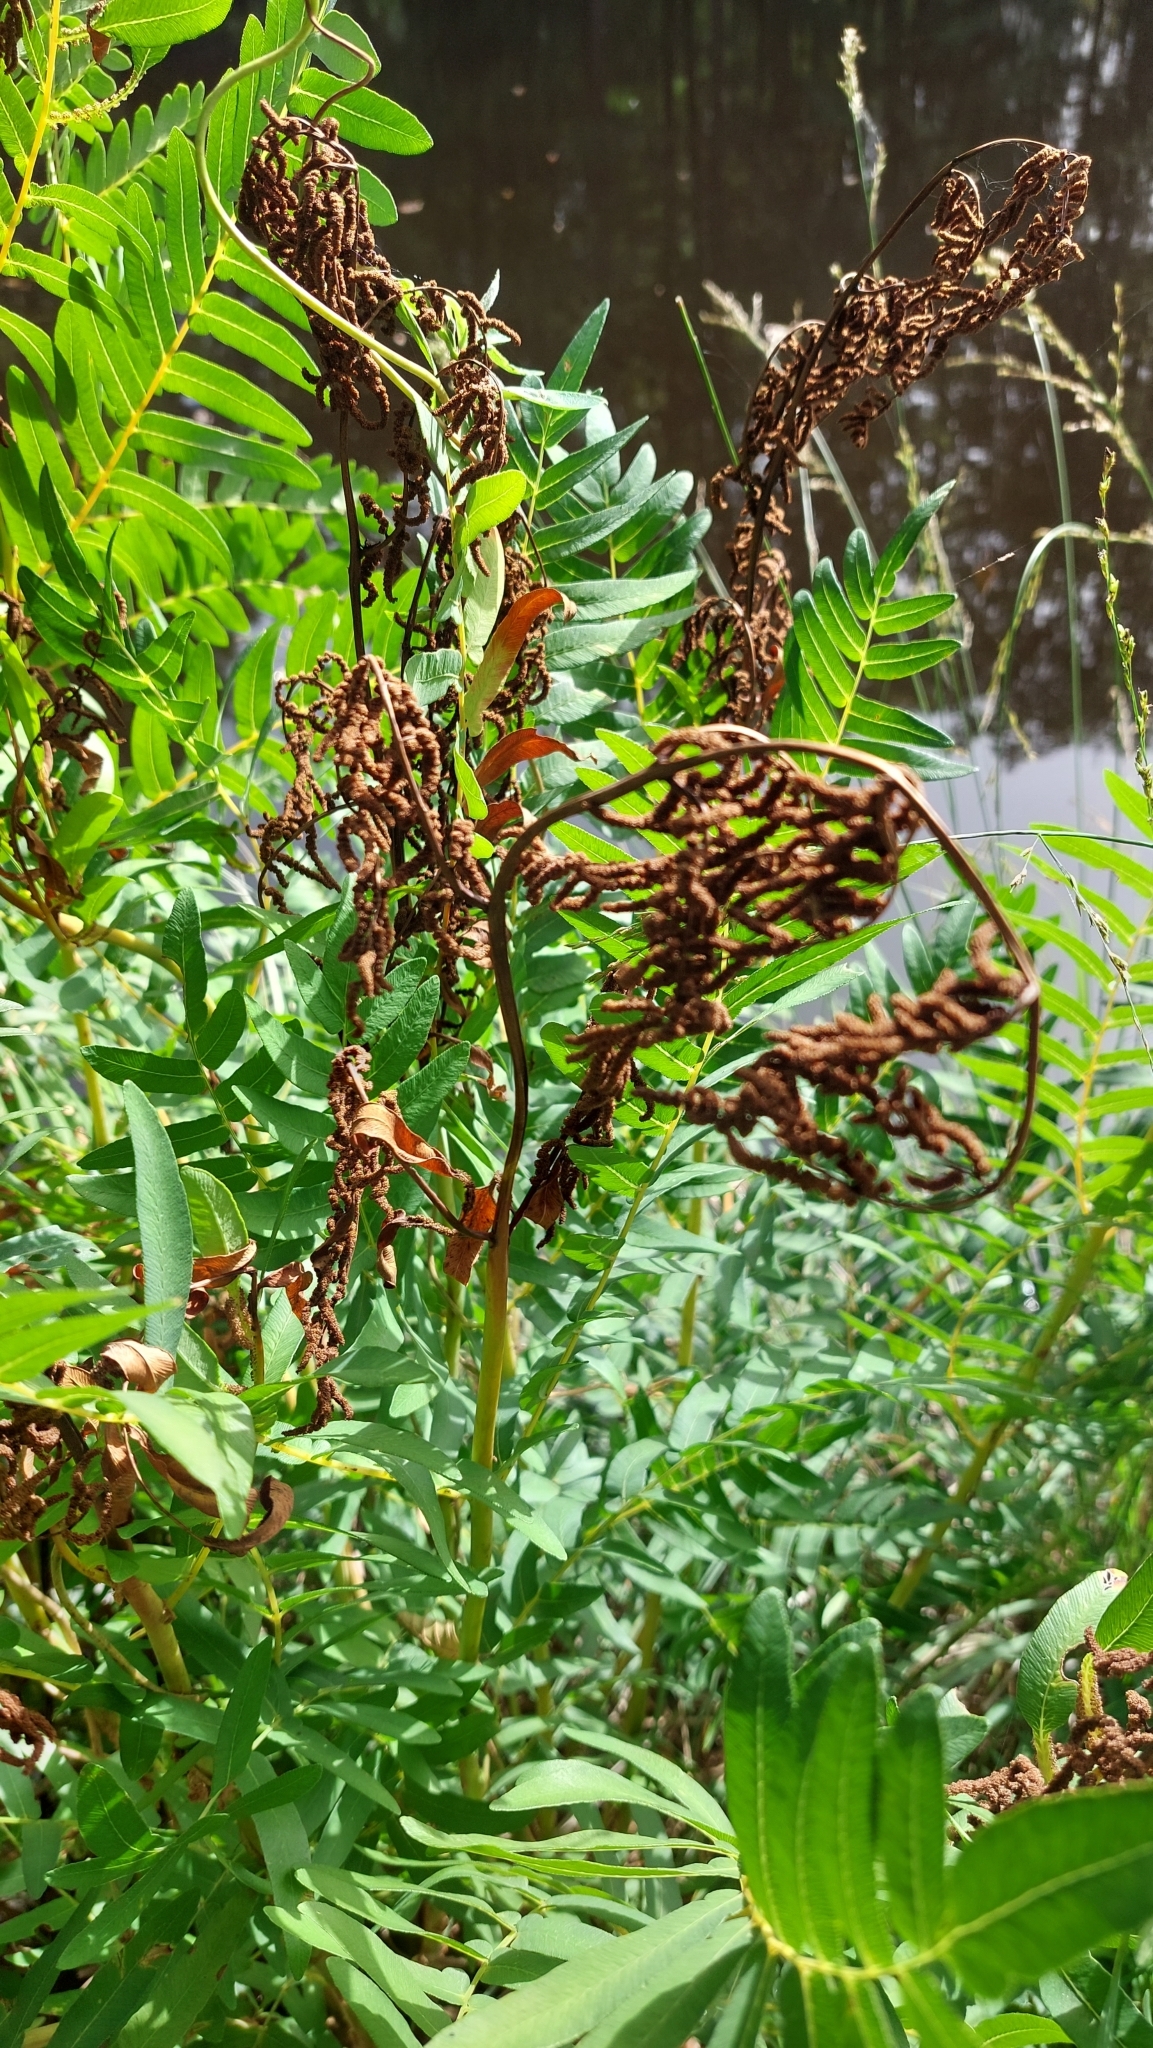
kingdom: Plantae
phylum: Tracheophyta
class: Polypodiopsida
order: Osmundales
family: Osmundaceae
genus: Osmunda
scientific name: Osmunda regalis
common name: Royal fern
